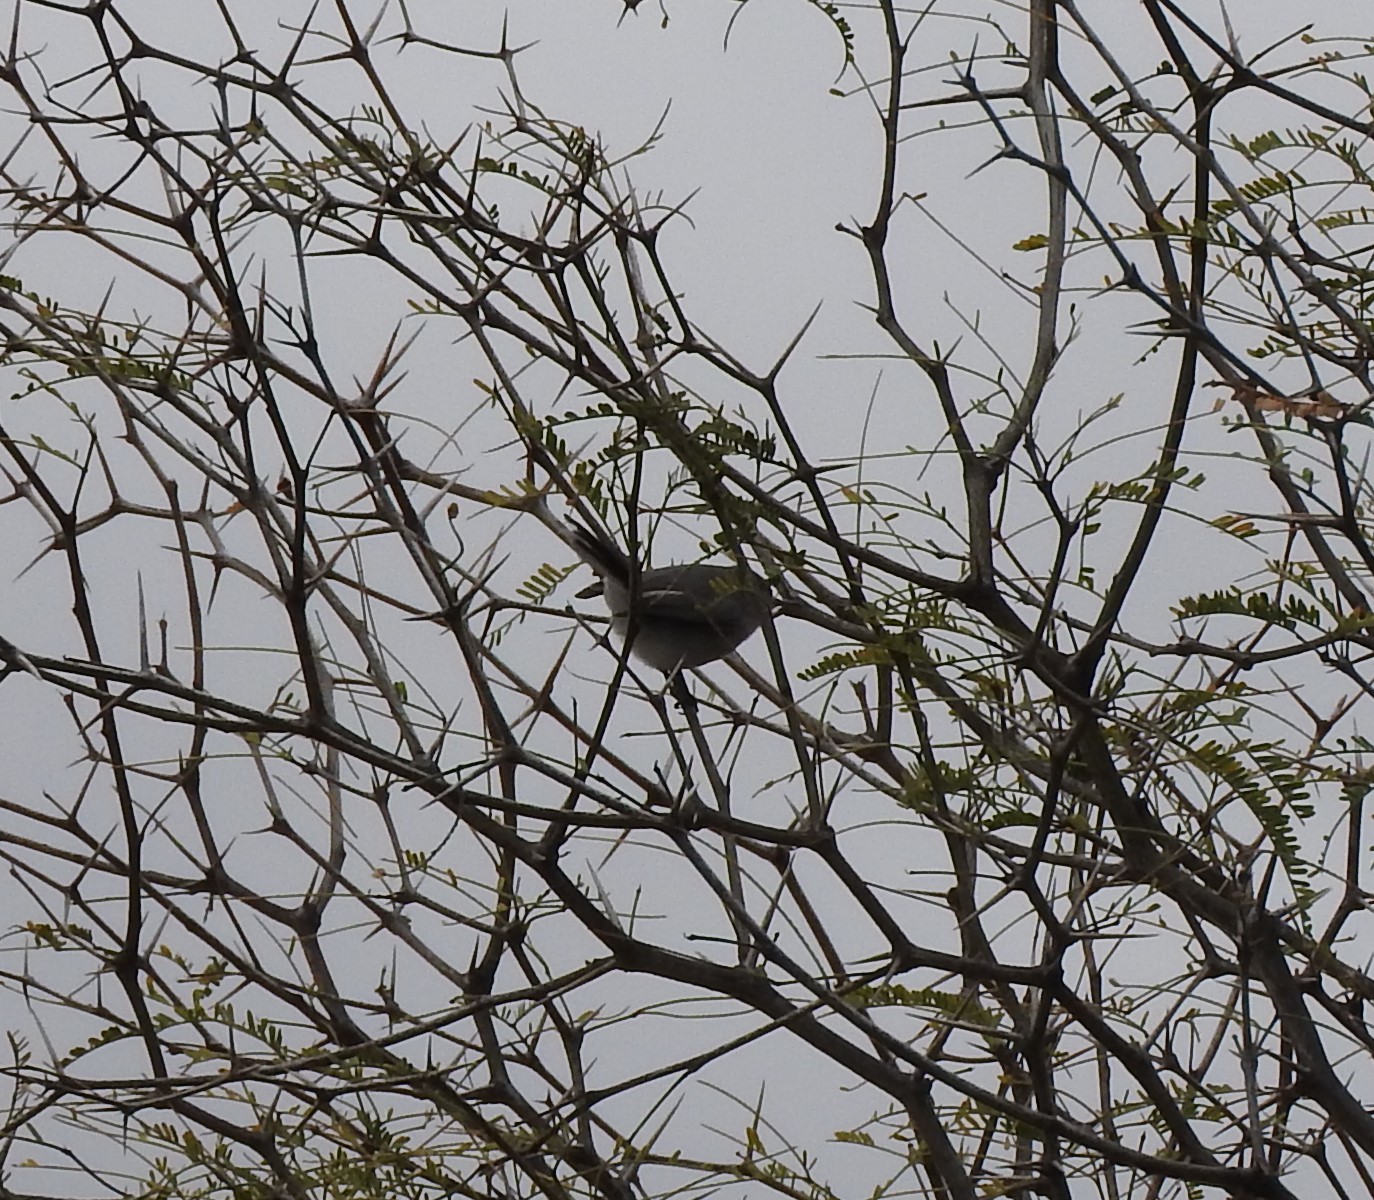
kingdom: Animalia
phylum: Chordata
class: Aves
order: Passeriformes
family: Polioptilidae
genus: Polioptila
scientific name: Polioptila caerulea
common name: Blue-gray gnatcatcher
